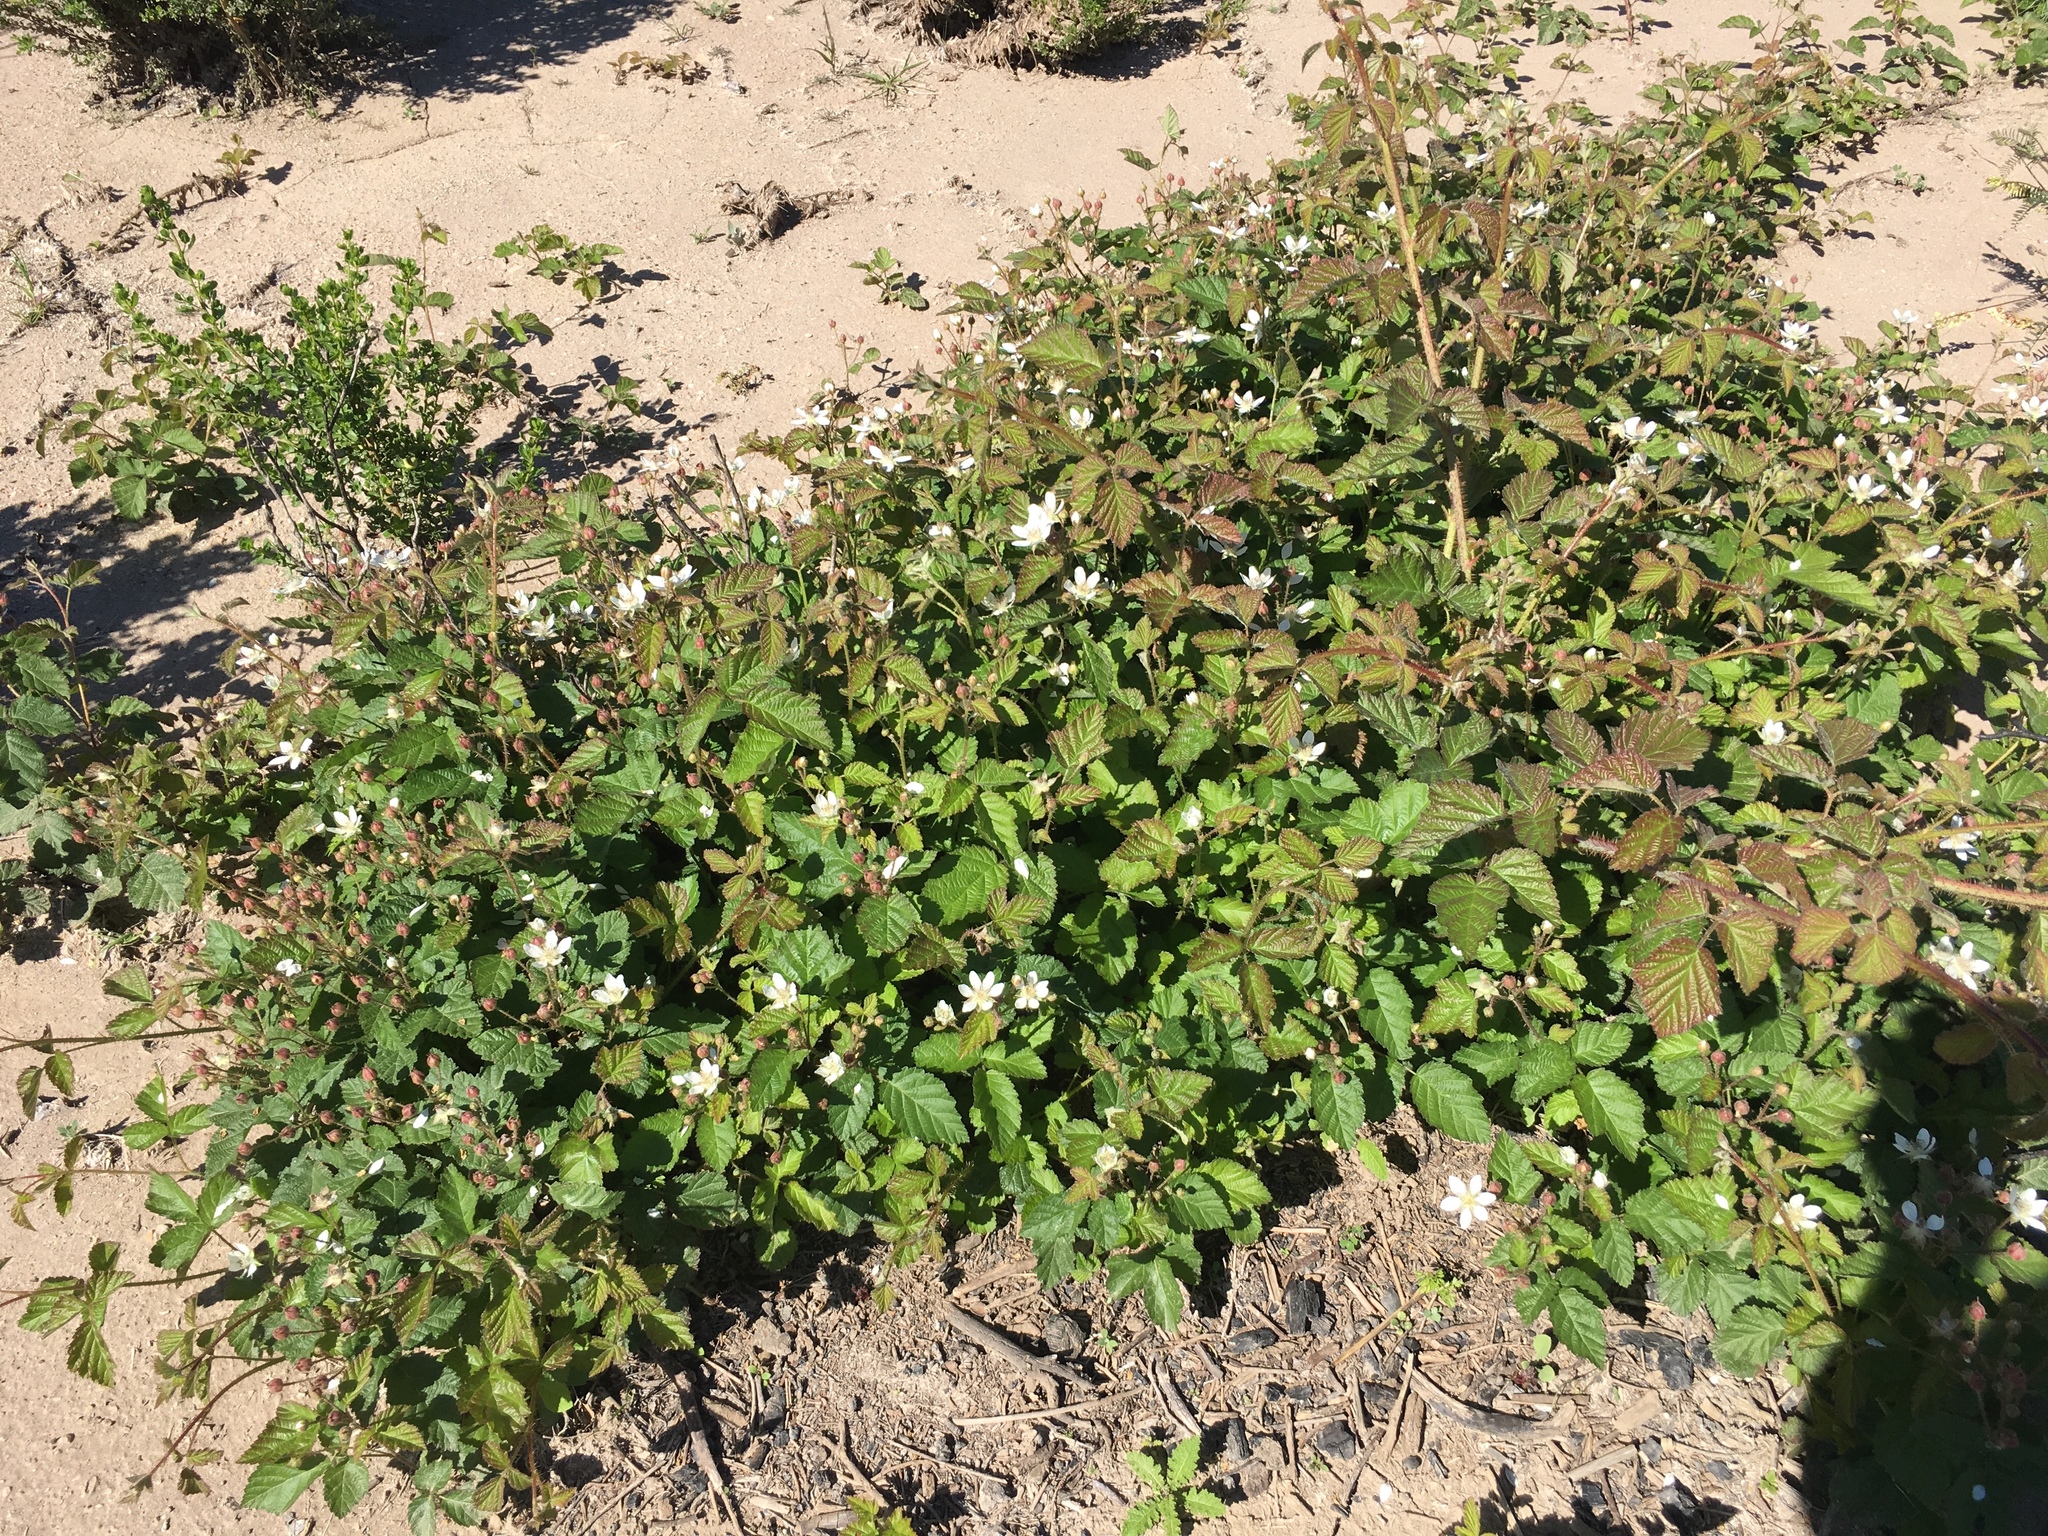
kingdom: Plantae
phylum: Tracheophyta
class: Magnoliopsida
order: Rosales
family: Rosaceae
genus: Rubus
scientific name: Rubus ursinus
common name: Pacific blackberry
